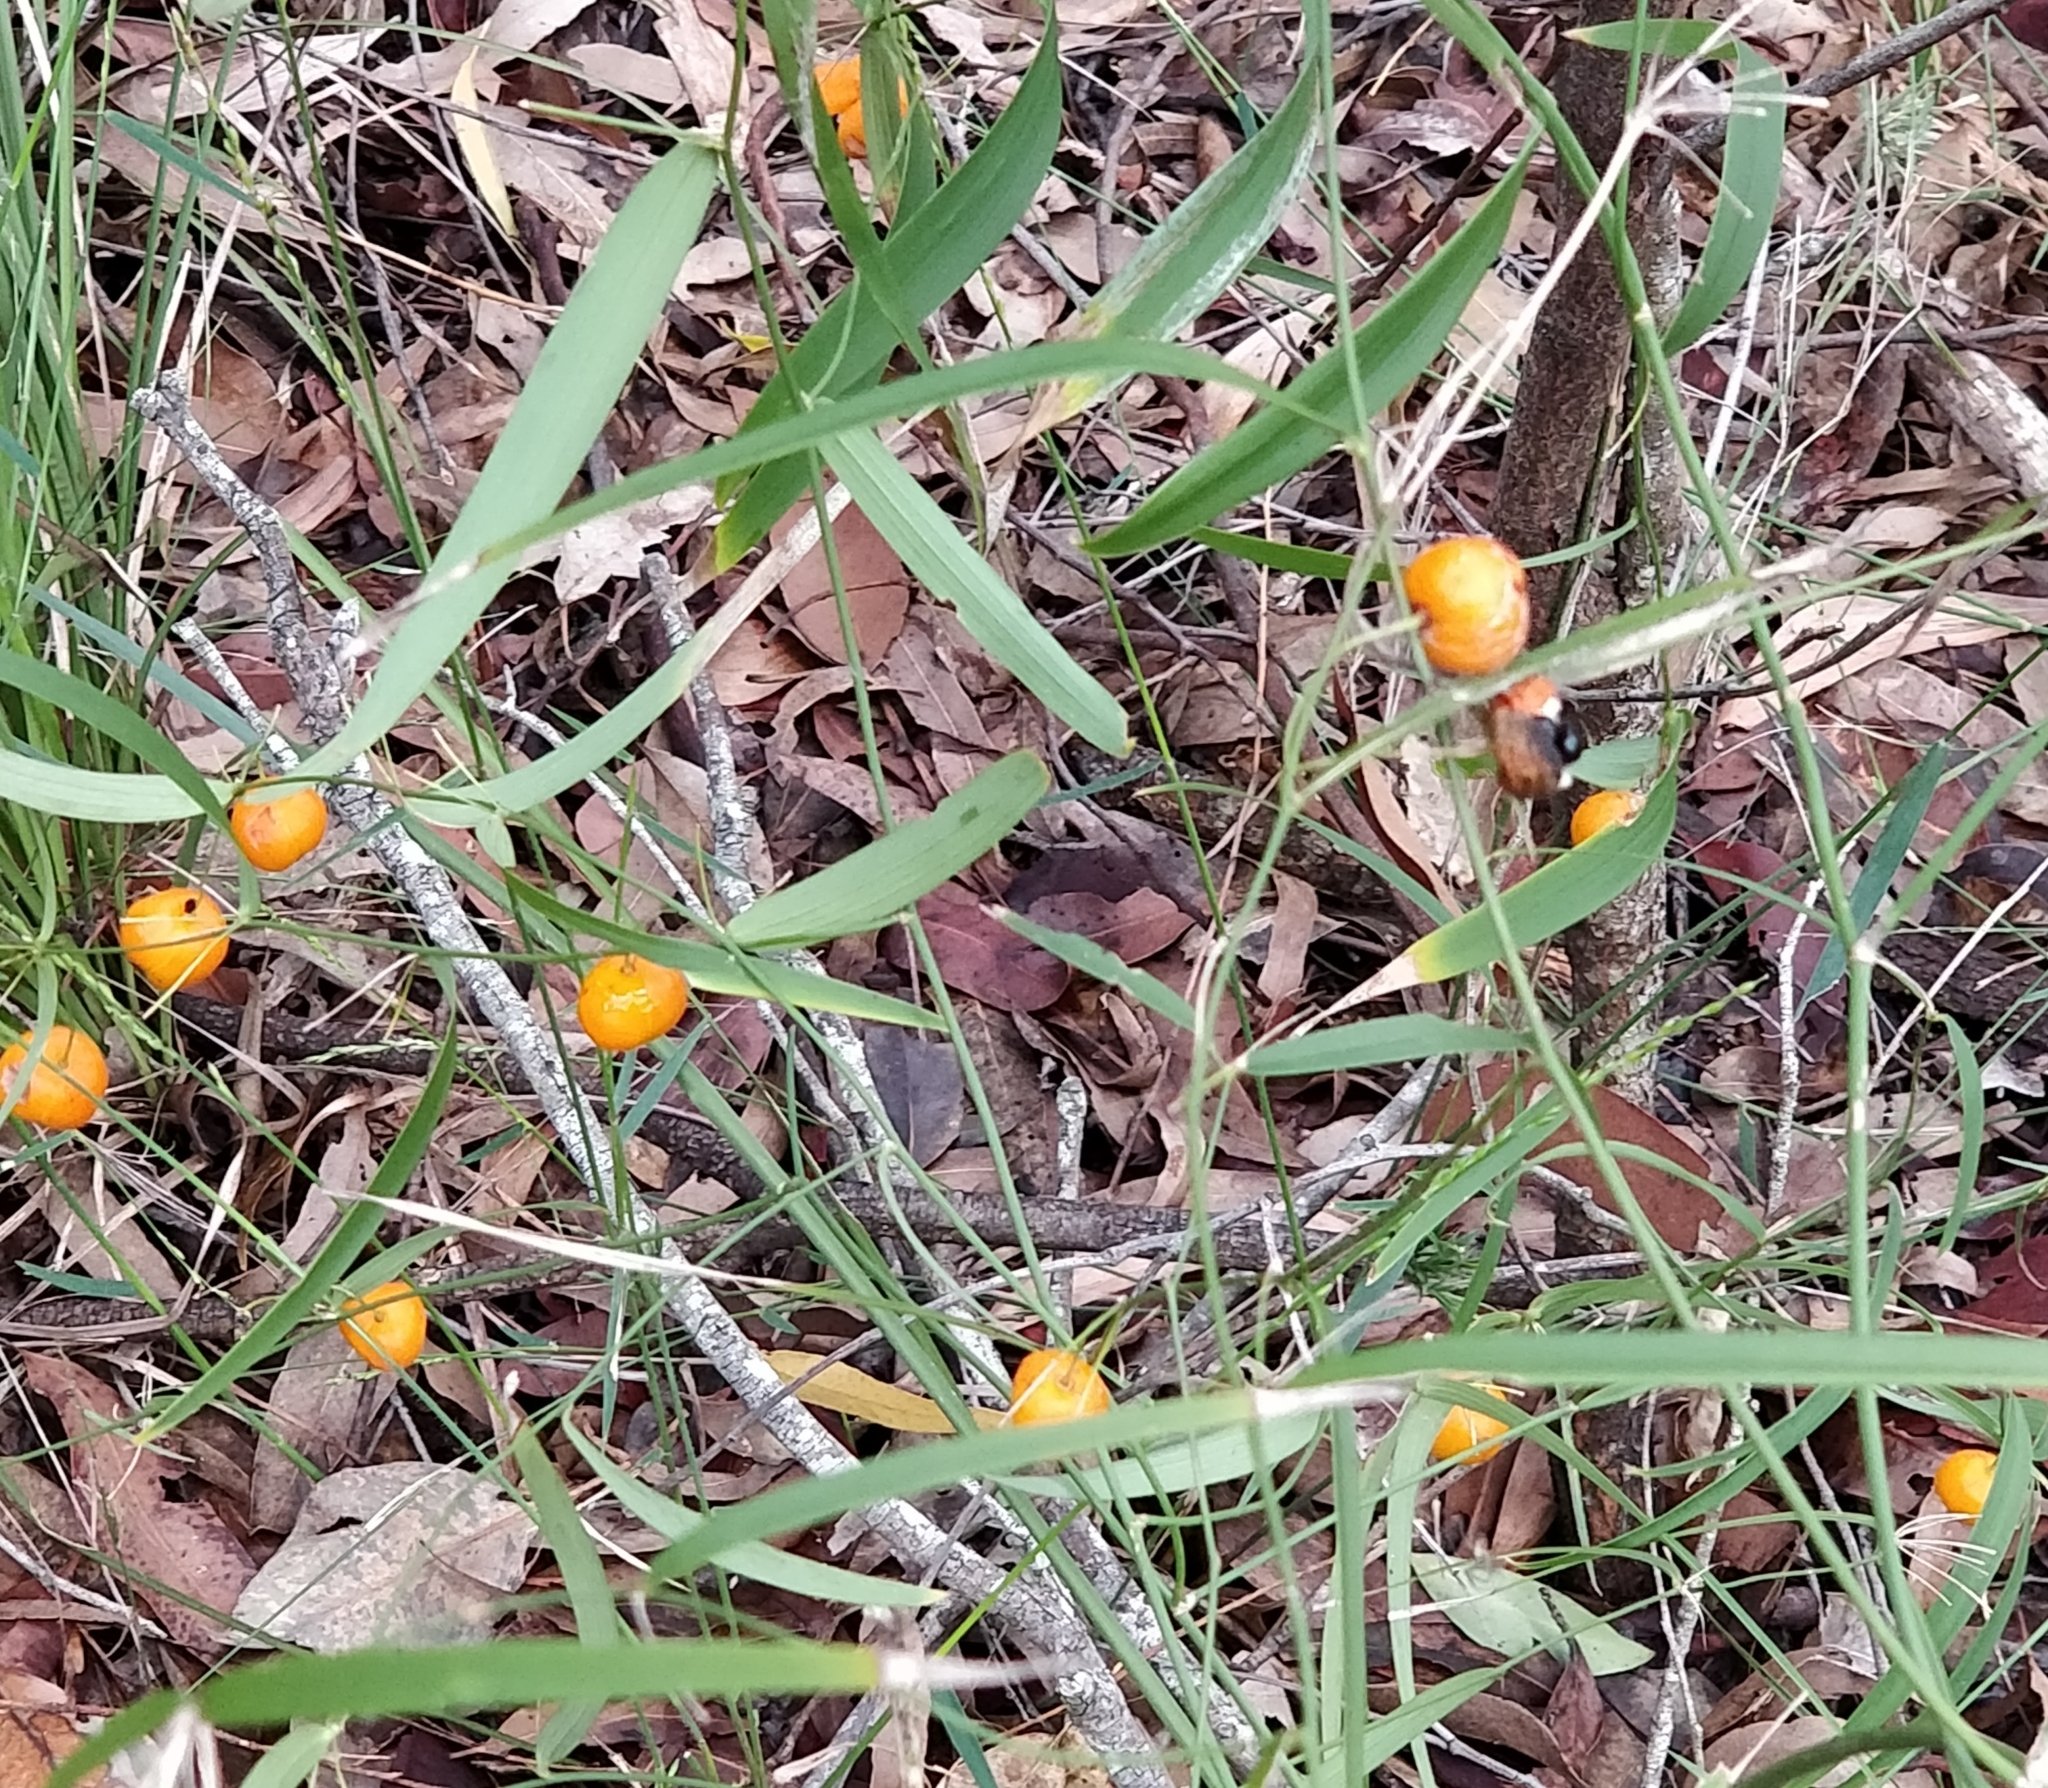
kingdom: Plantae
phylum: Tracheophyta
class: Liliopsida
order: Asparagales
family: Asparagaceae
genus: Eustrephus
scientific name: Eustrephus latifolius
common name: Orangevine
